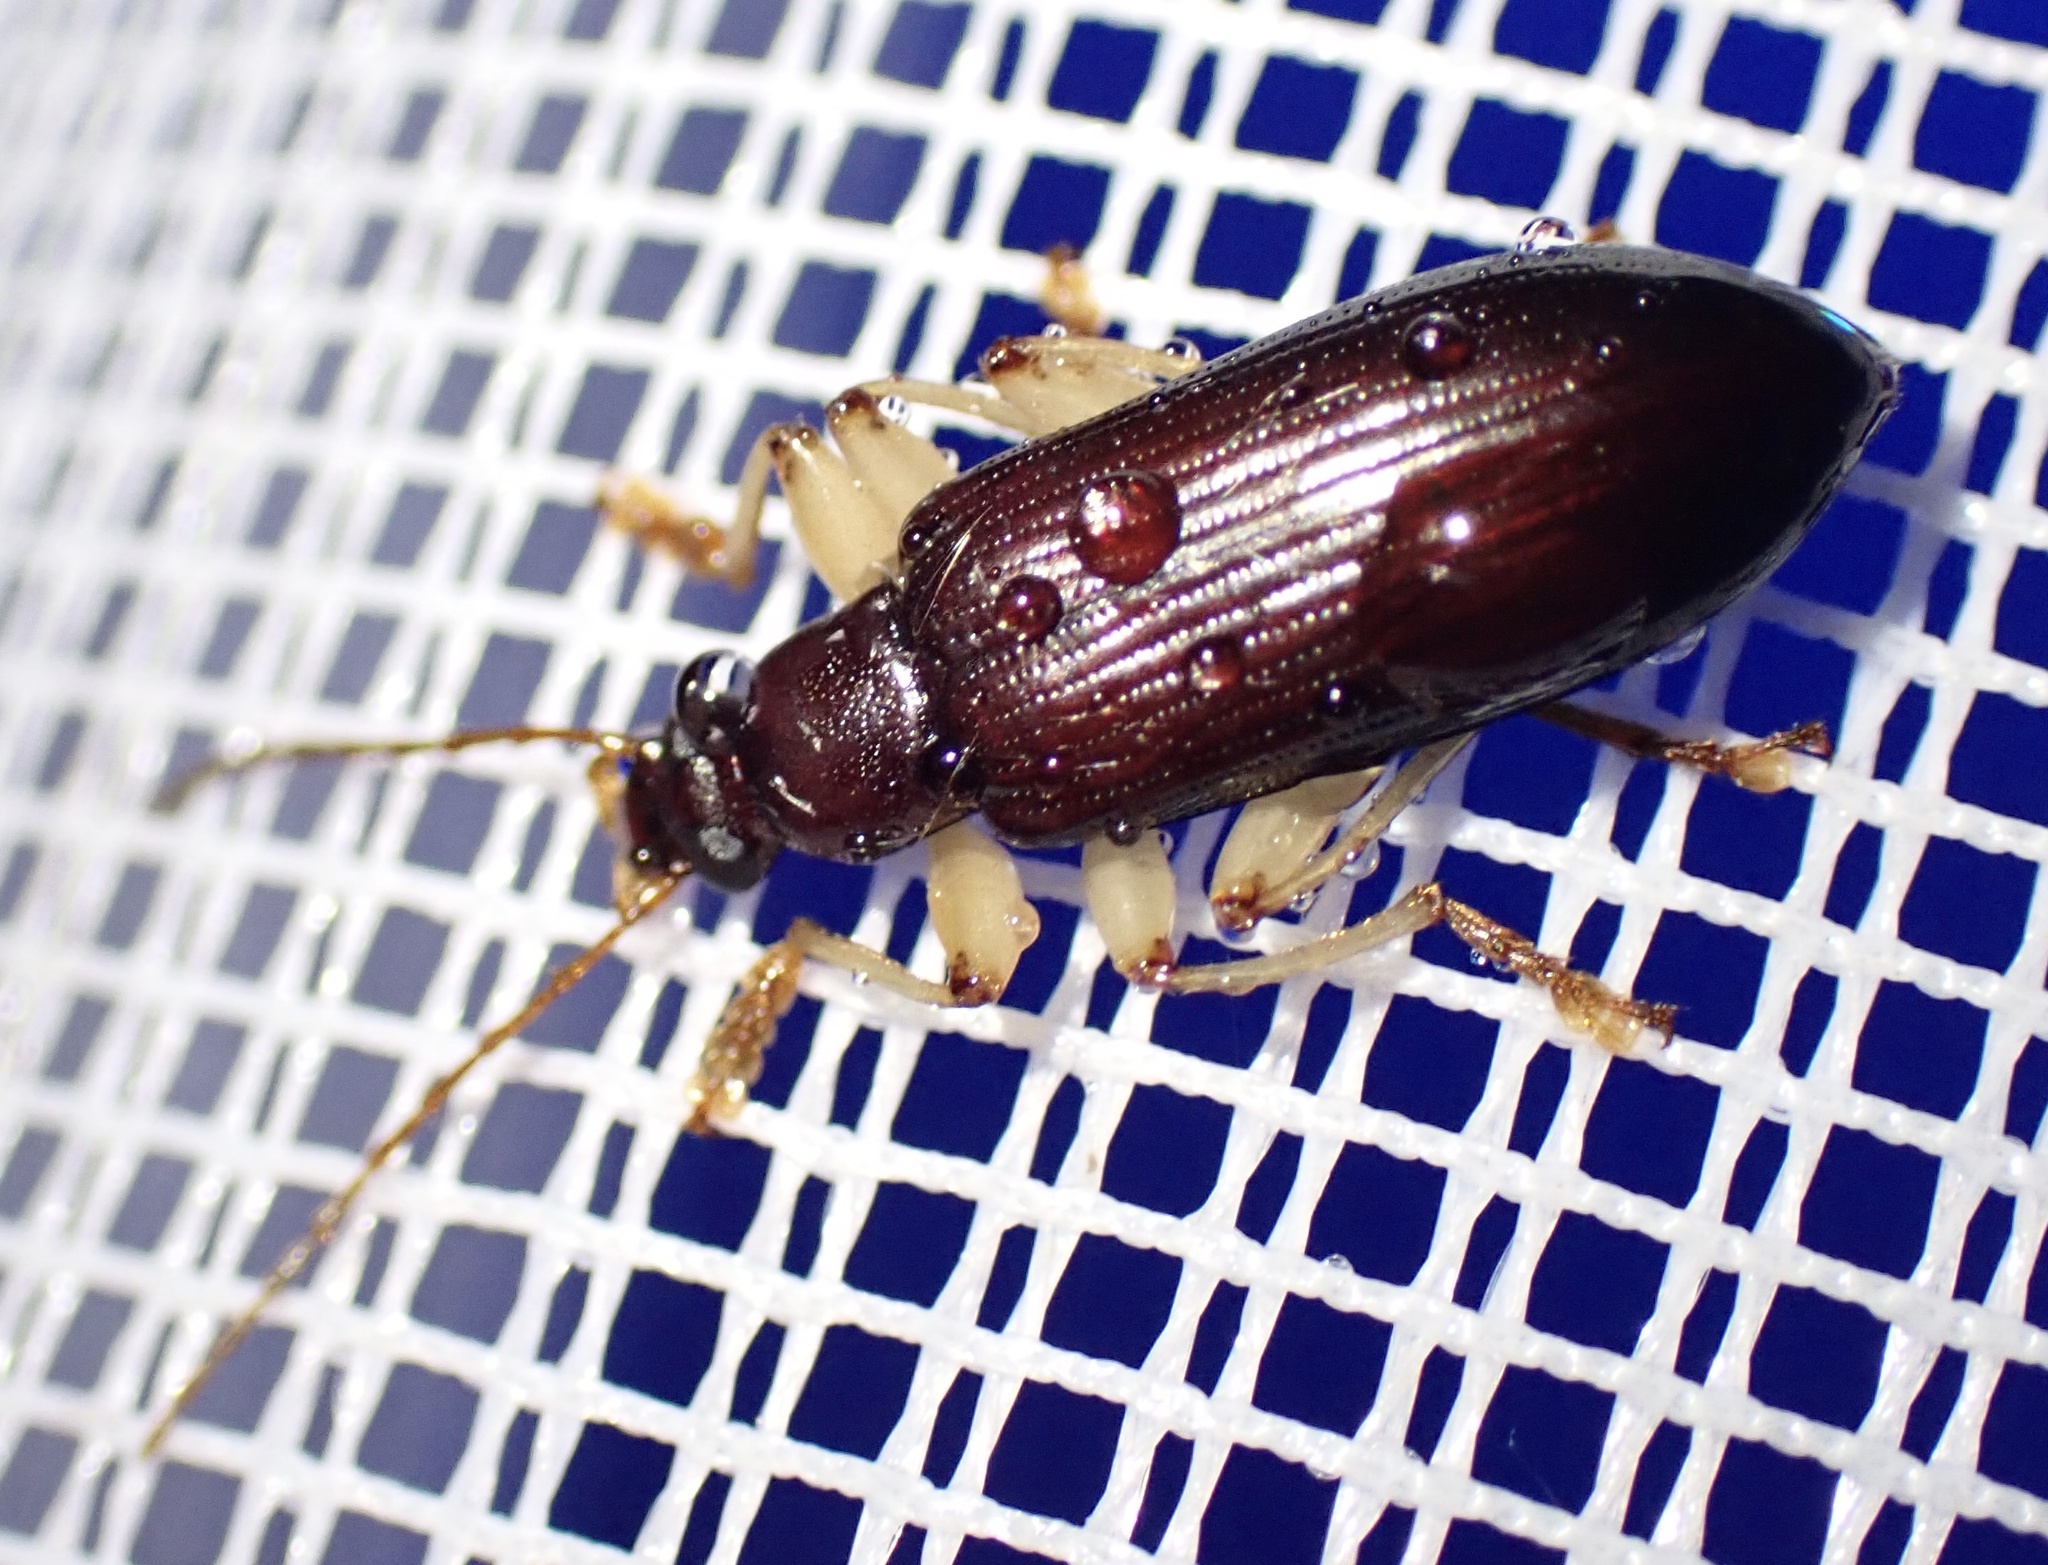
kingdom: Animalia
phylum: Arthropoda
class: Insecta
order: Coleoptera
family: Tenebrionidae
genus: Dimorphochilus
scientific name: Dimorphochilus
